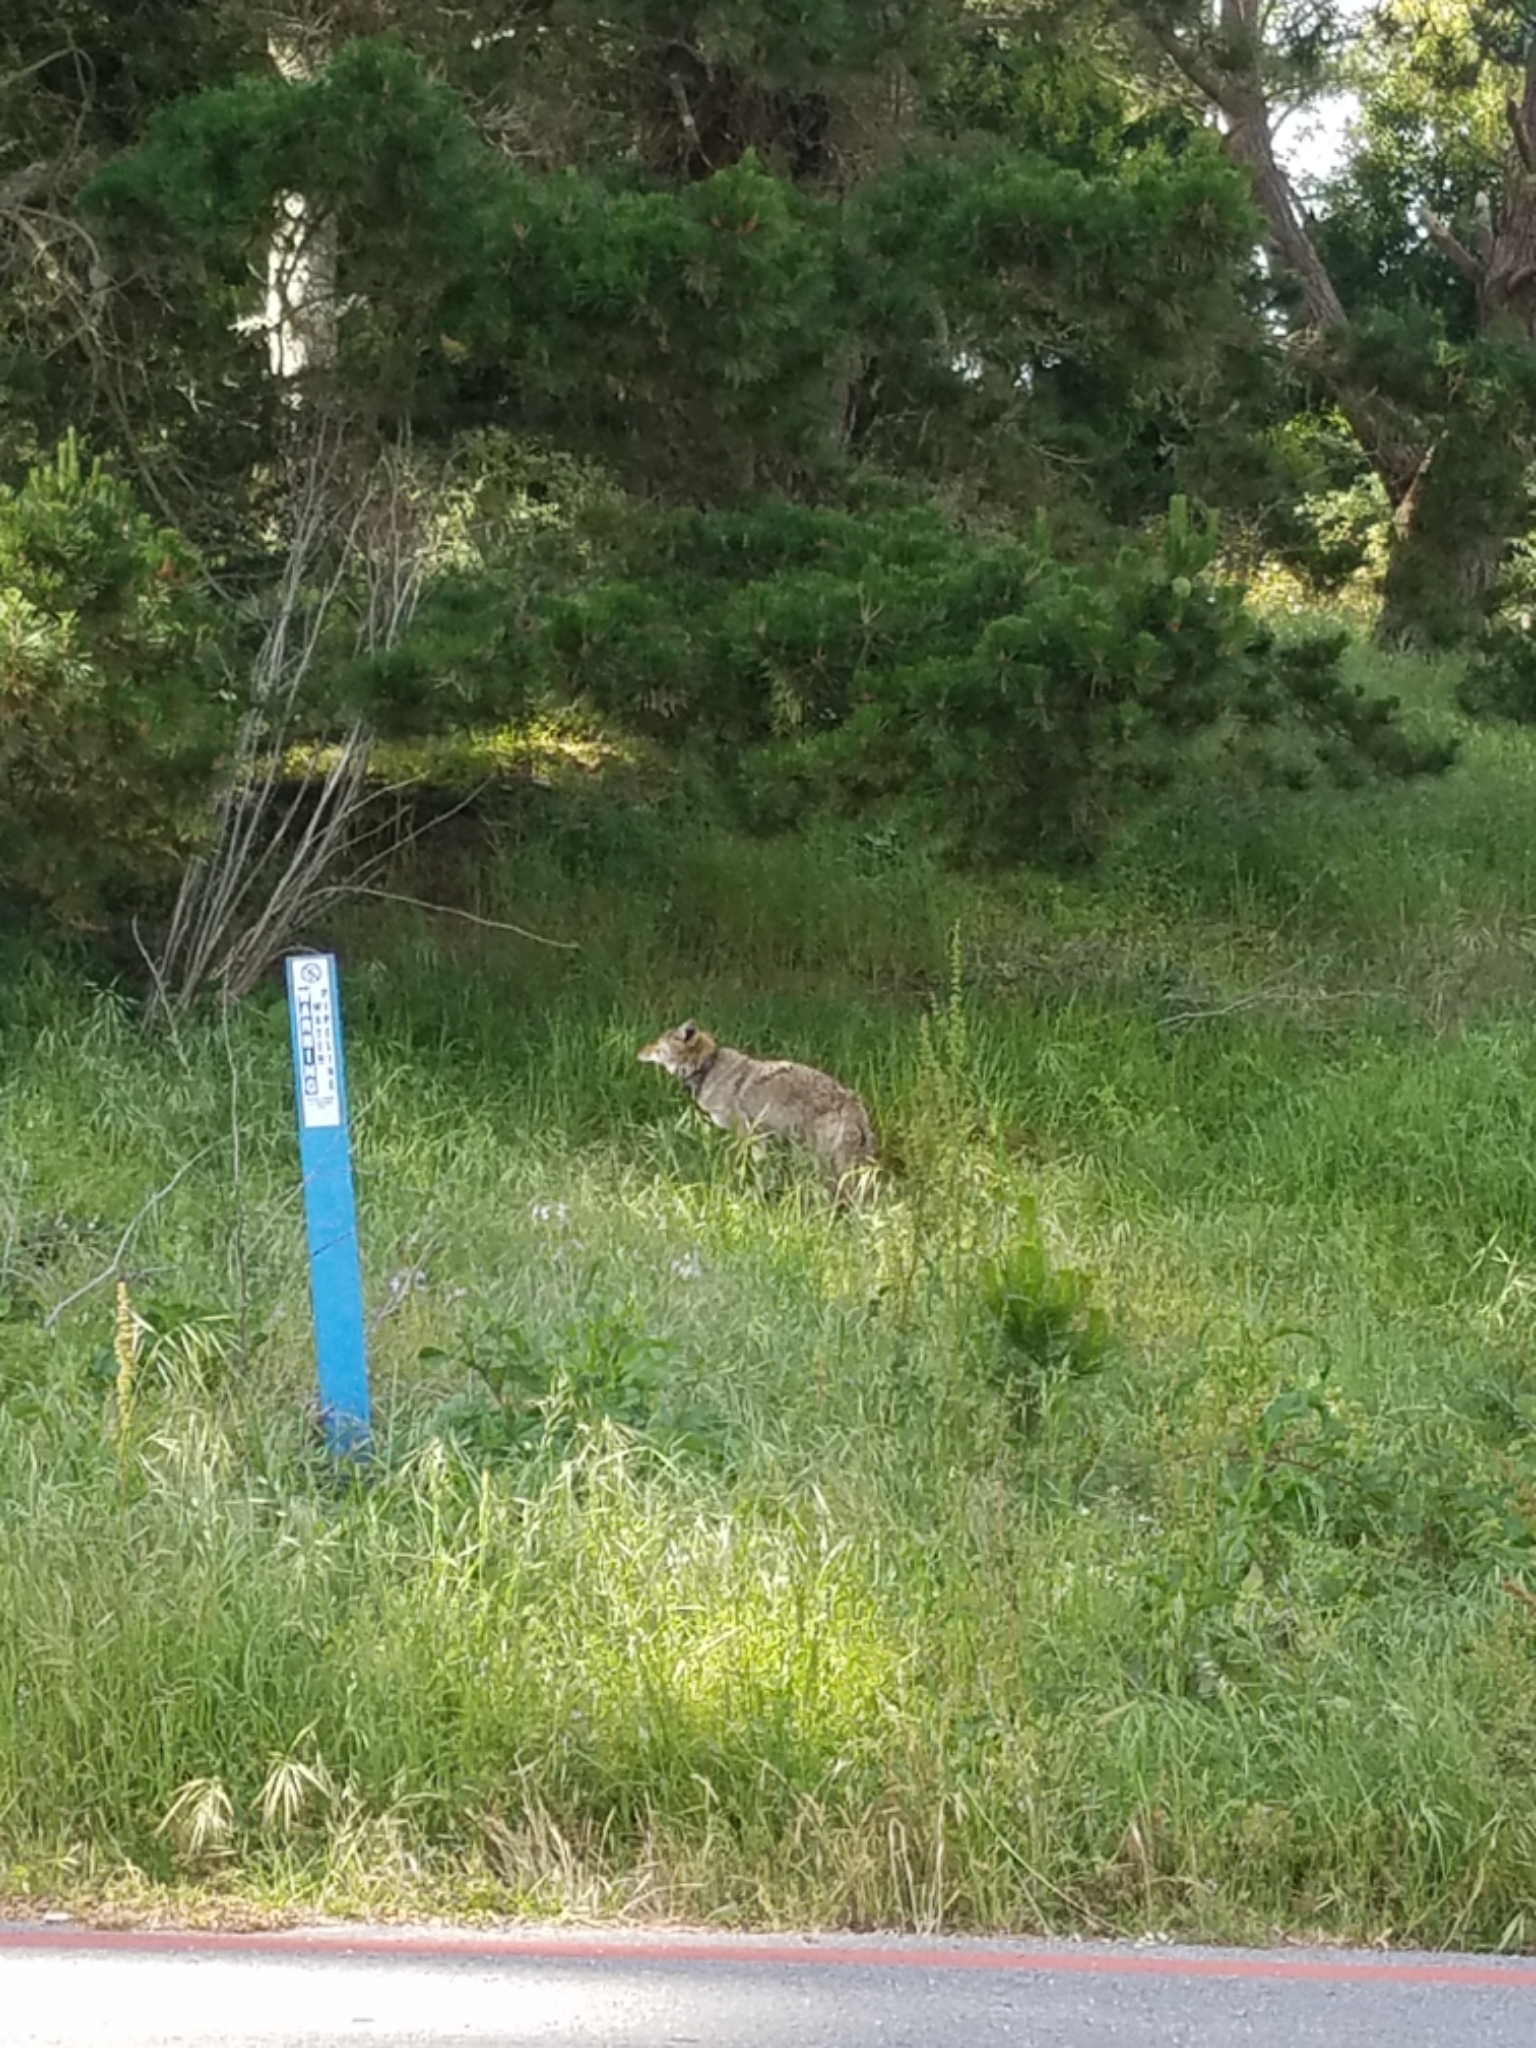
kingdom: Animalia
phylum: Chordata
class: Mammalia
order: Carnivora
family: Canidae
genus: Canis
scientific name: Canis latrans
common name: Coyote
